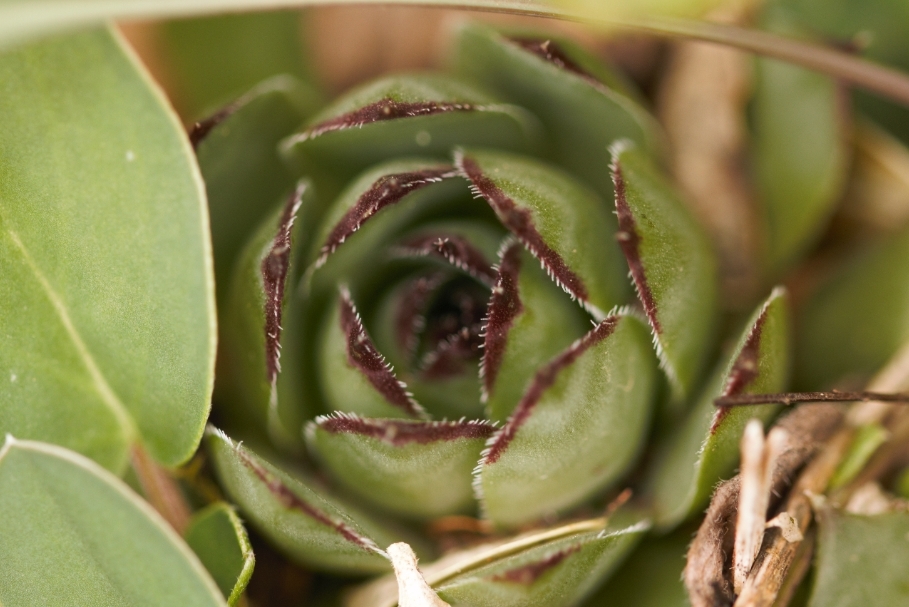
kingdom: Plantae
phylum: Tracheophyta
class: Magnoliopsida
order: Saxifragales
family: Crassulaceae
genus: Sempervivum
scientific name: Sempervivum tectorum
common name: House-leek
